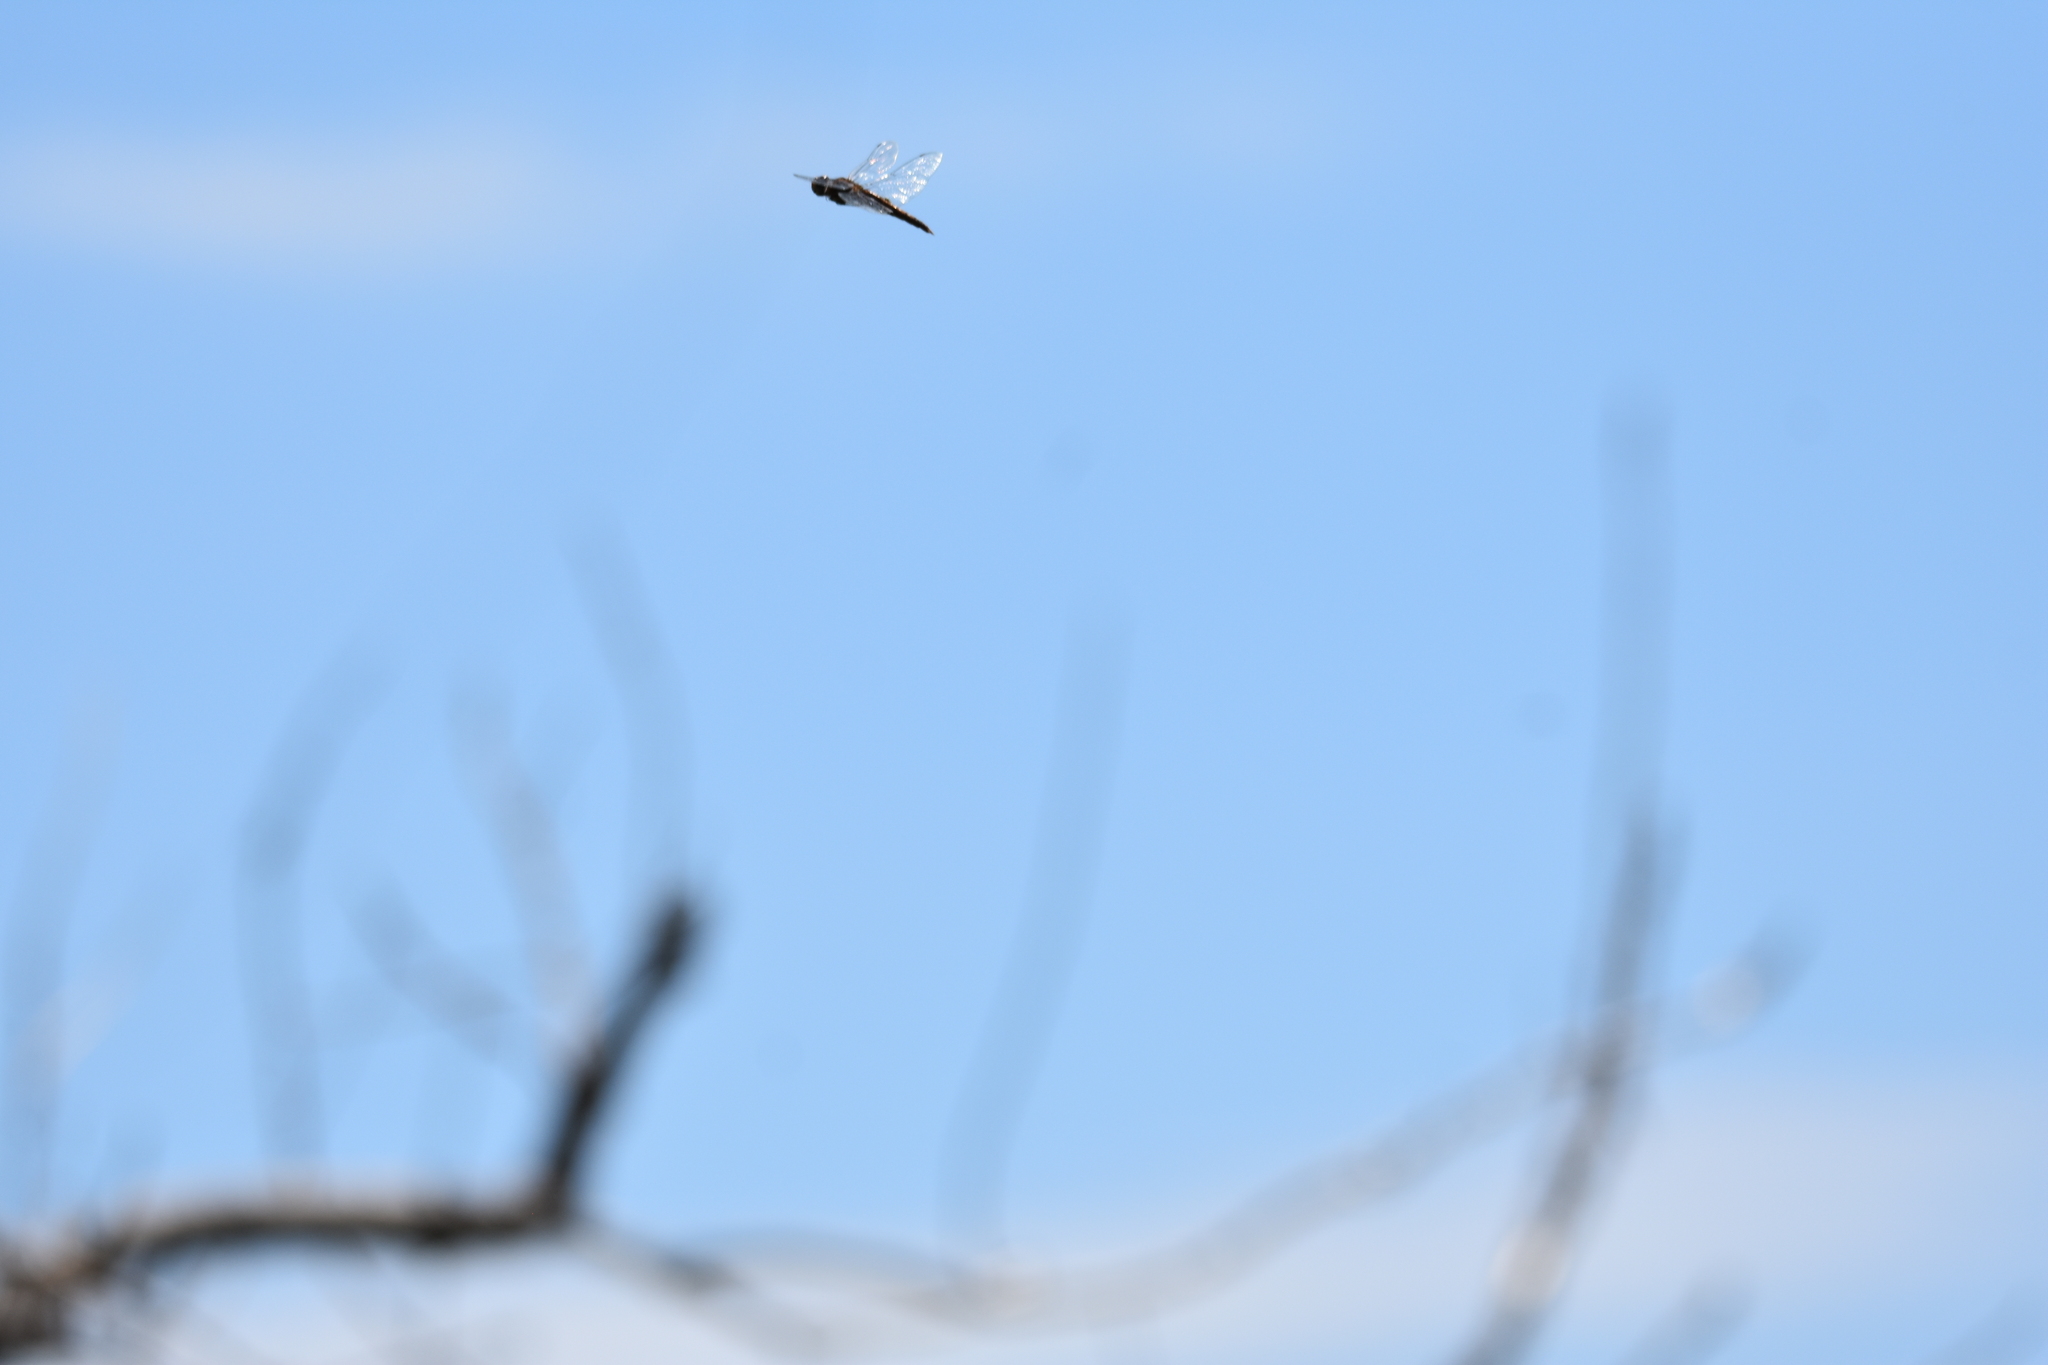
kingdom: Animalia
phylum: Arthropoda
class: Insecta
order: Odonata
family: Libellulidae
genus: Pantala
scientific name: Pantala hymenaea
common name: Spot-winged glider
